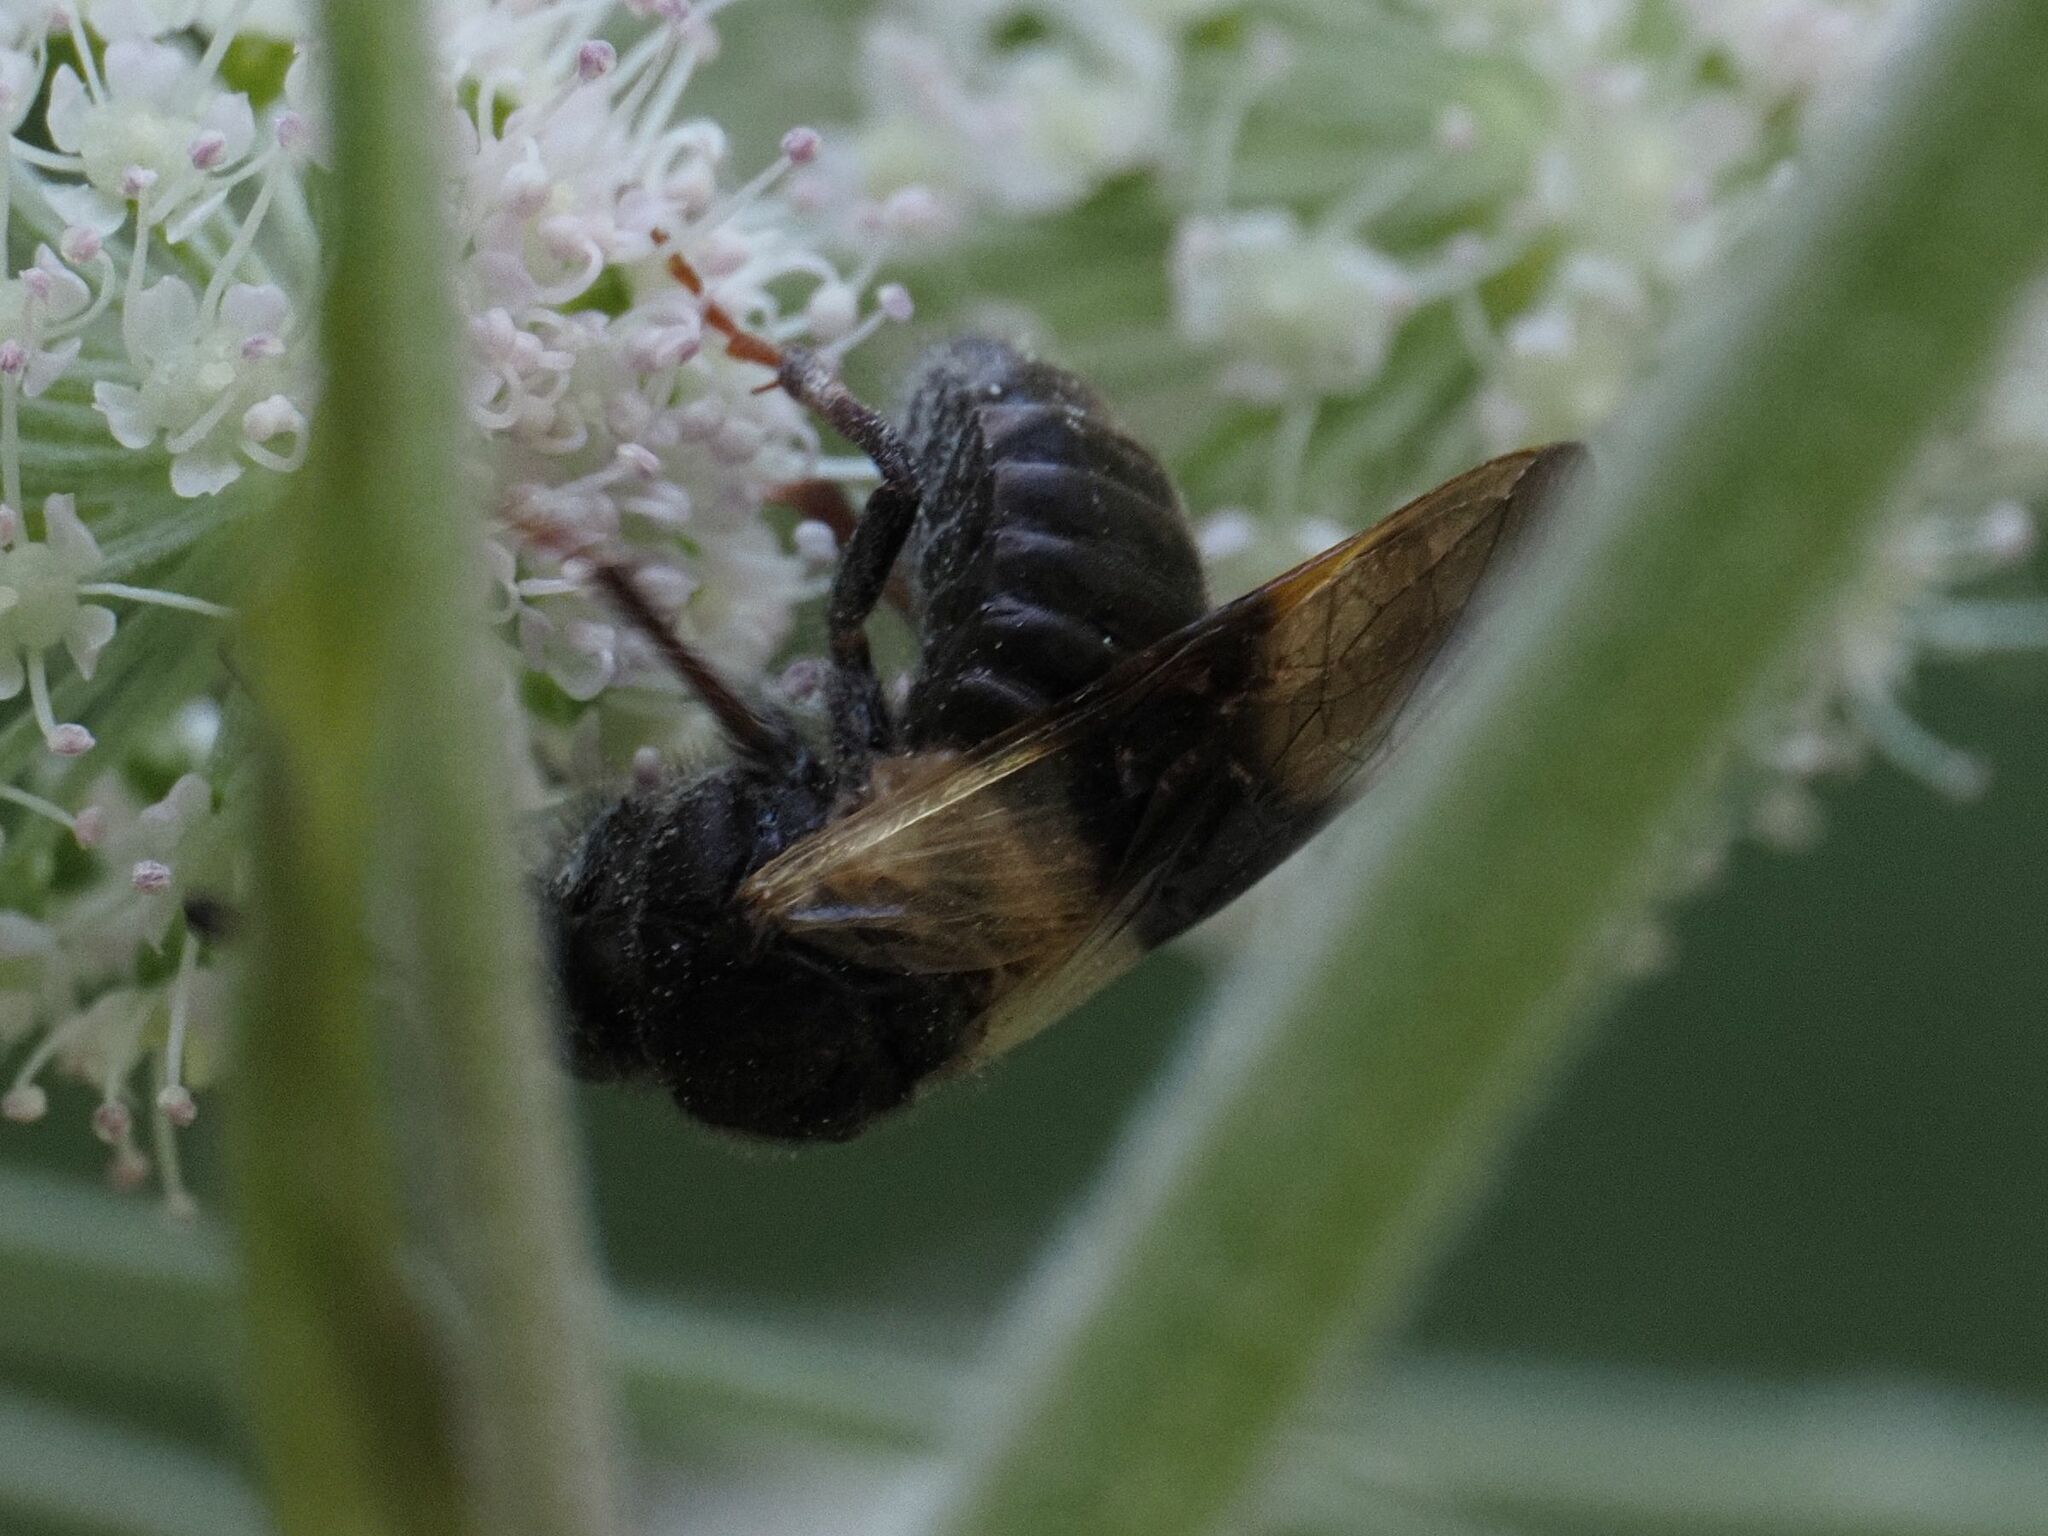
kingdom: Animalia
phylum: Arthropoda
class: Insecta
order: Hymenoptera
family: Cimbicidae
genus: Abia
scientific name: Abia fasciata
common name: Banded honeysuckle sawfly
